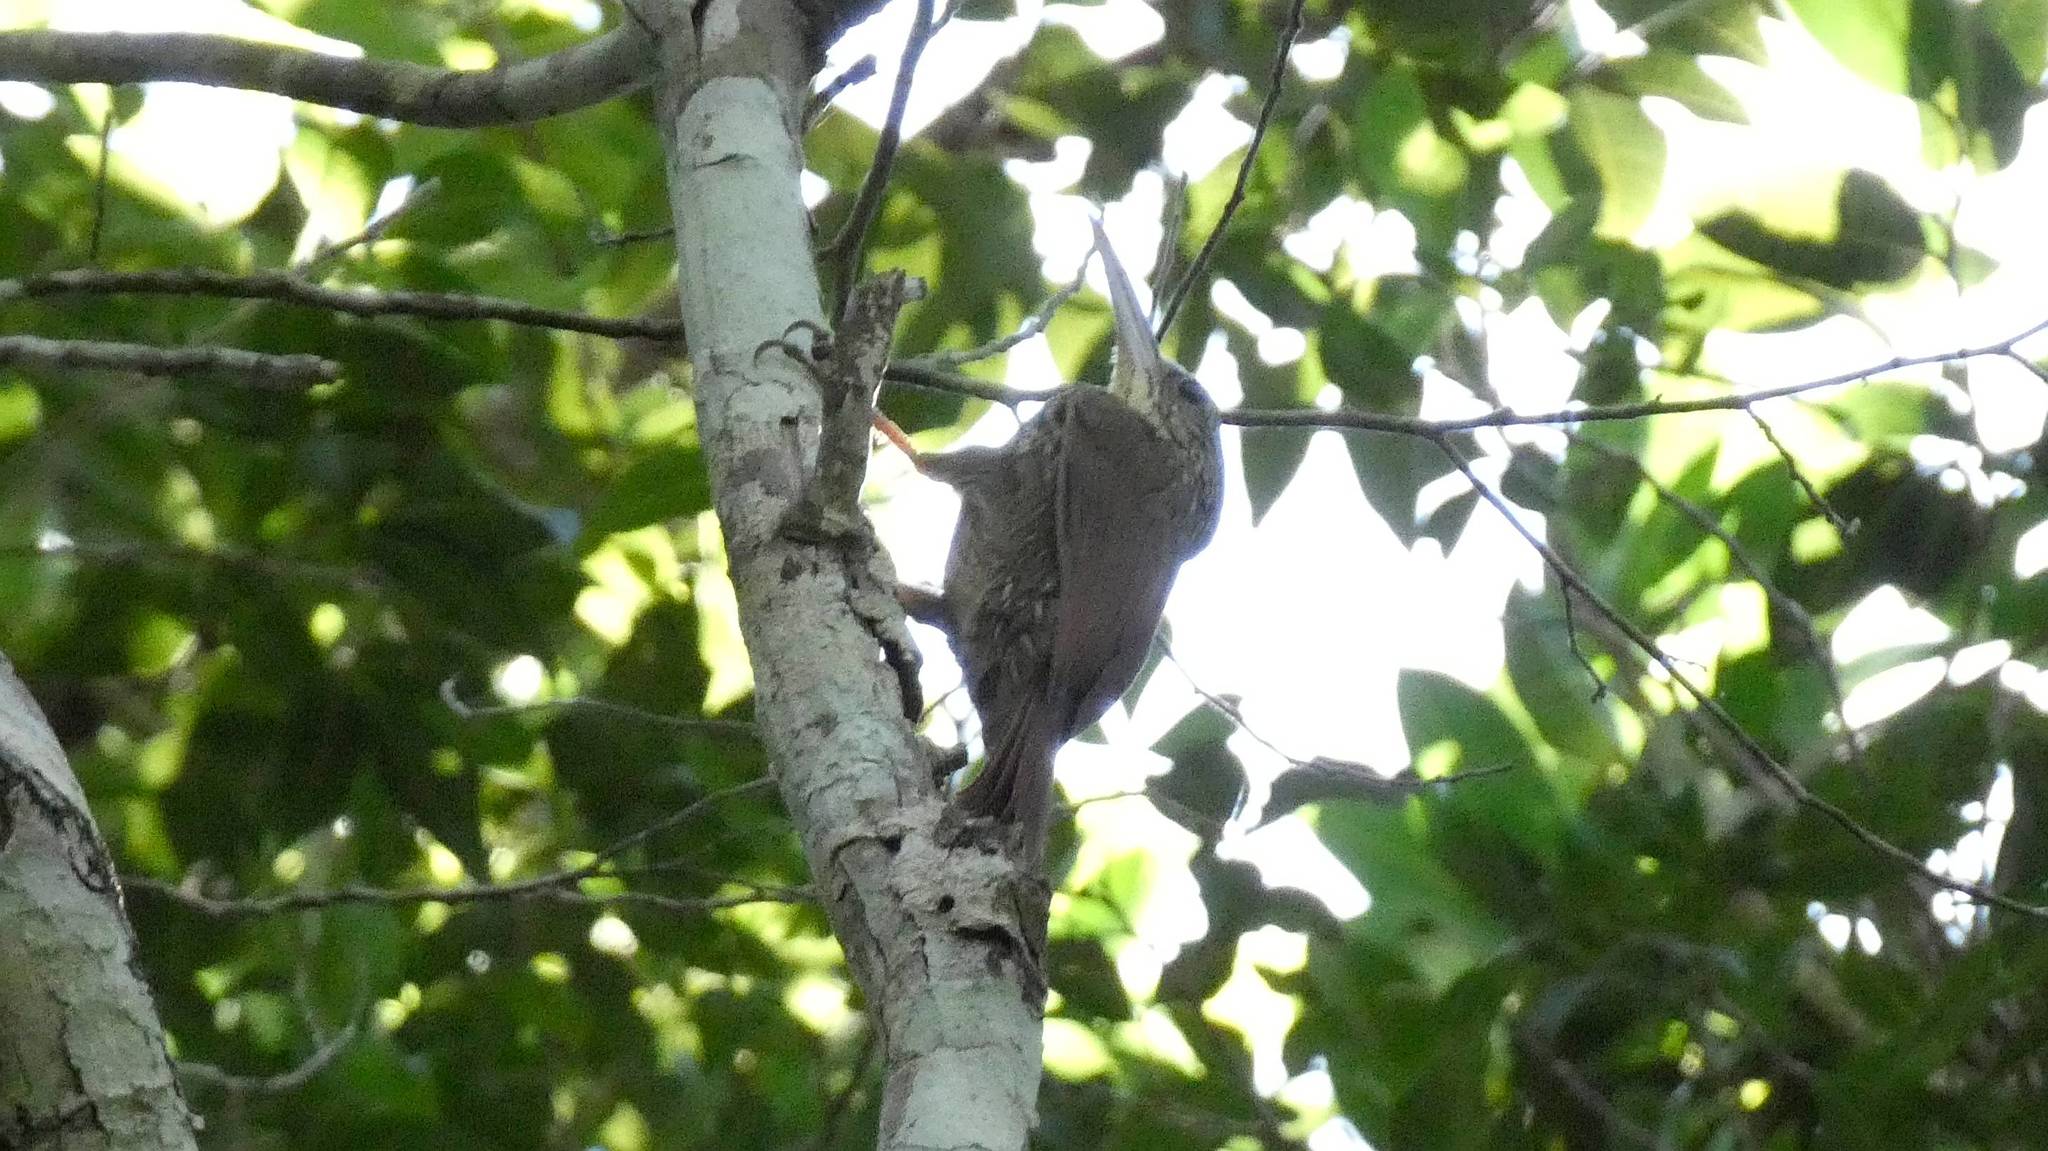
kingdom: Animalia
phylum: Chordata
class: Aves
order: Passeriformes
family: Furnariidae
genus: Xiphorhynchus
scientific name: Xiphorhynchus flavigaster
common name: Ivory-billed woodcreeper
